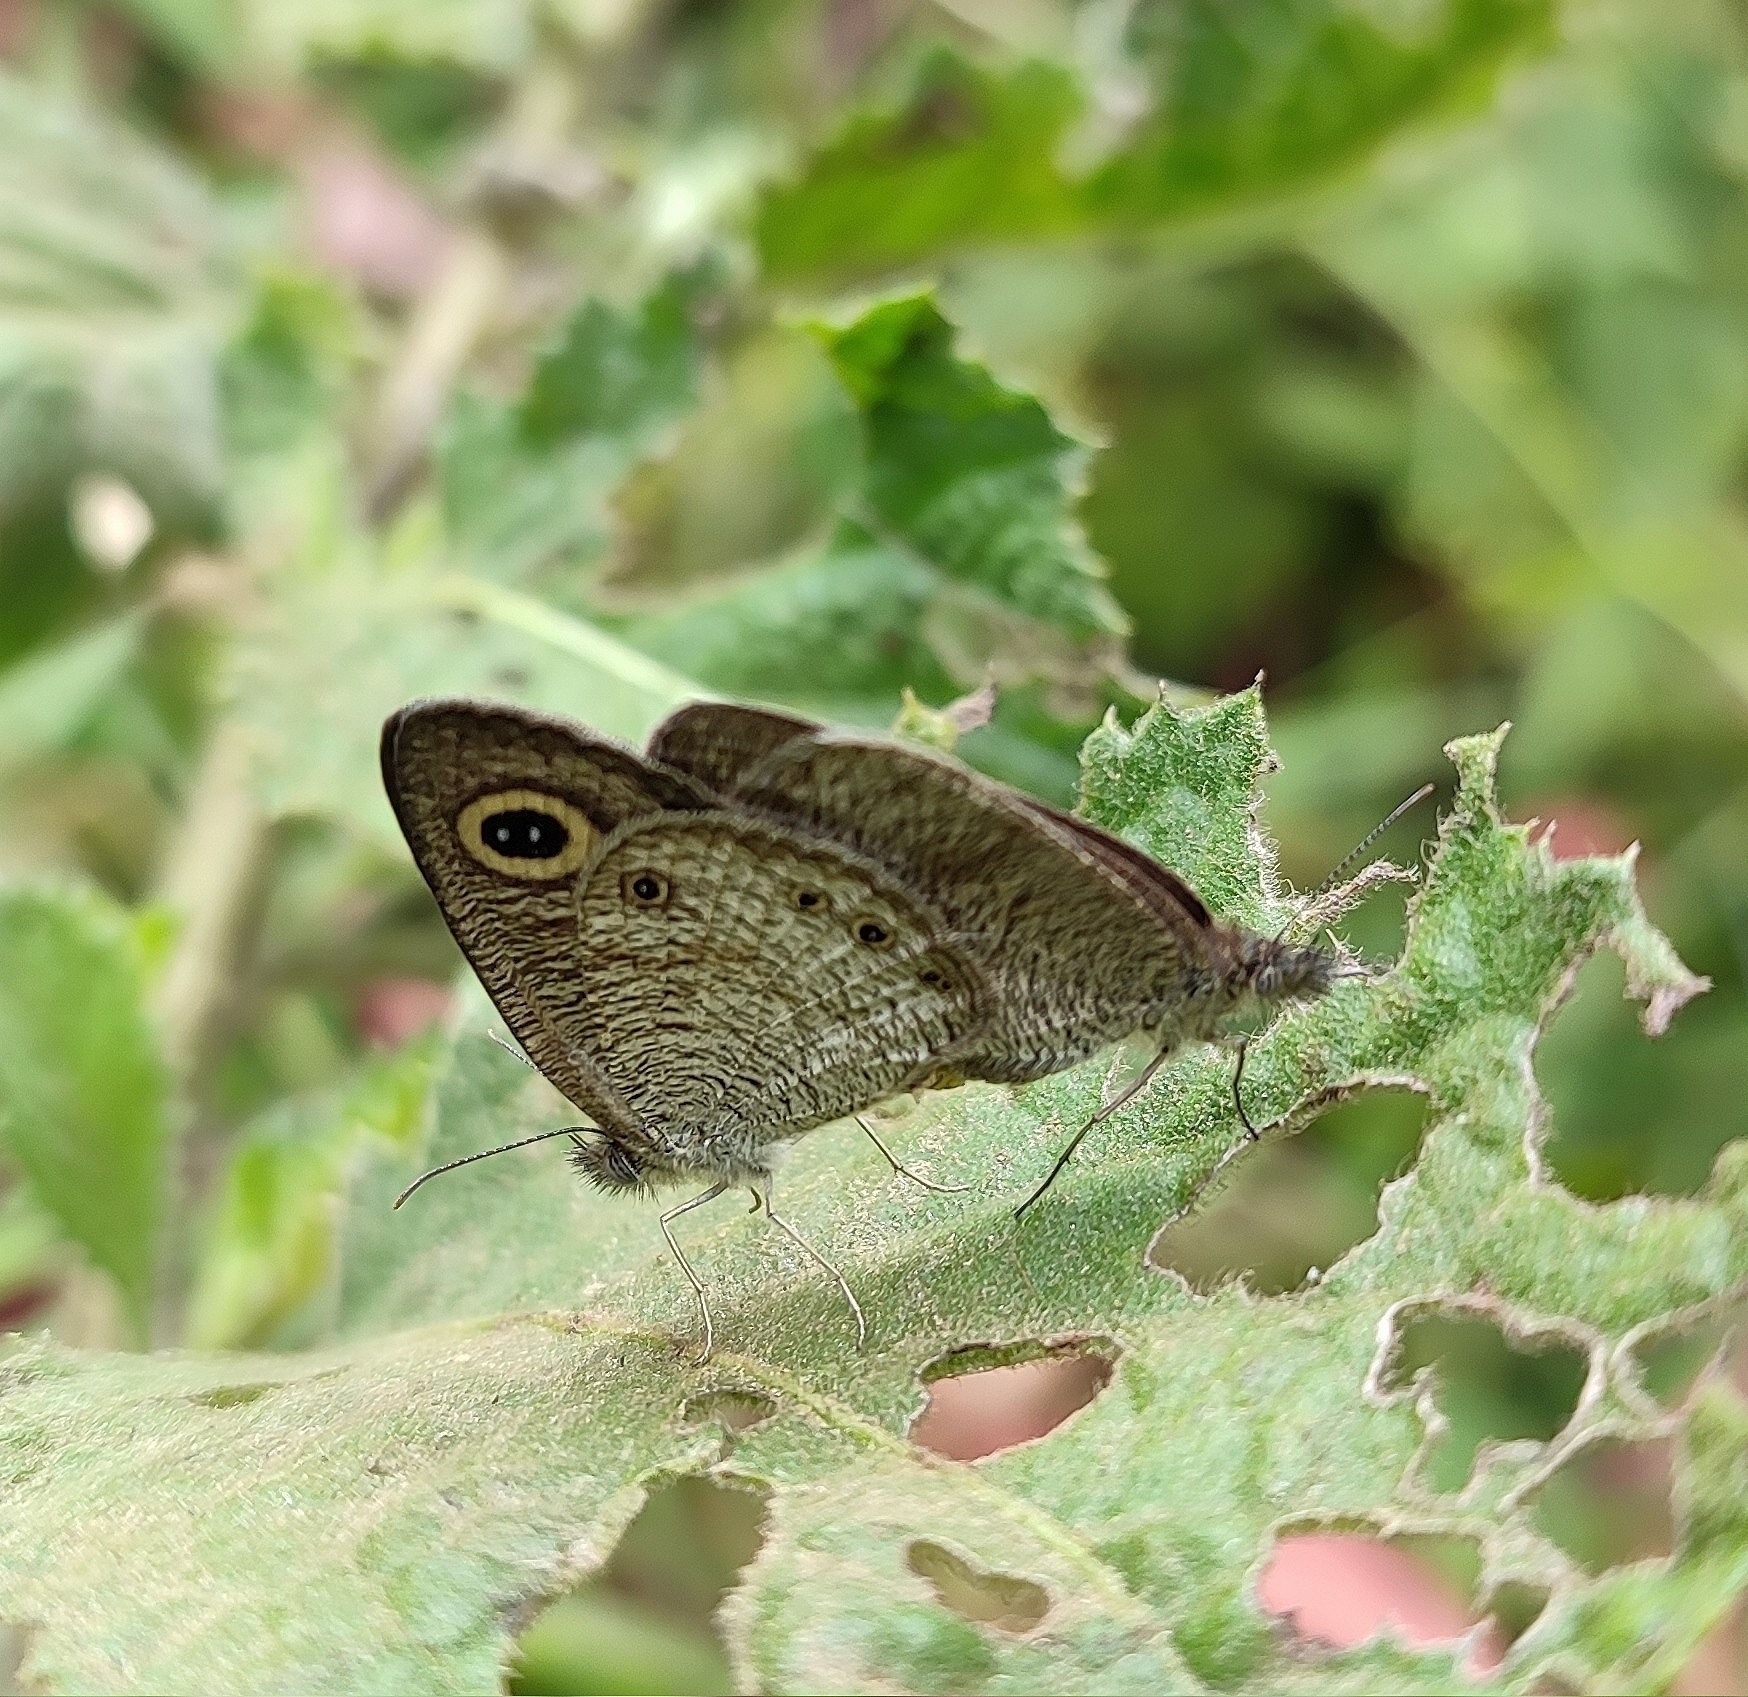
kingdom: Animalia
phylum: Arthropoda
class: Insecta
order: Lepidoptera
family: Nymphalidae
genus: Ypthima
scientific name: Ypthima huebneri
